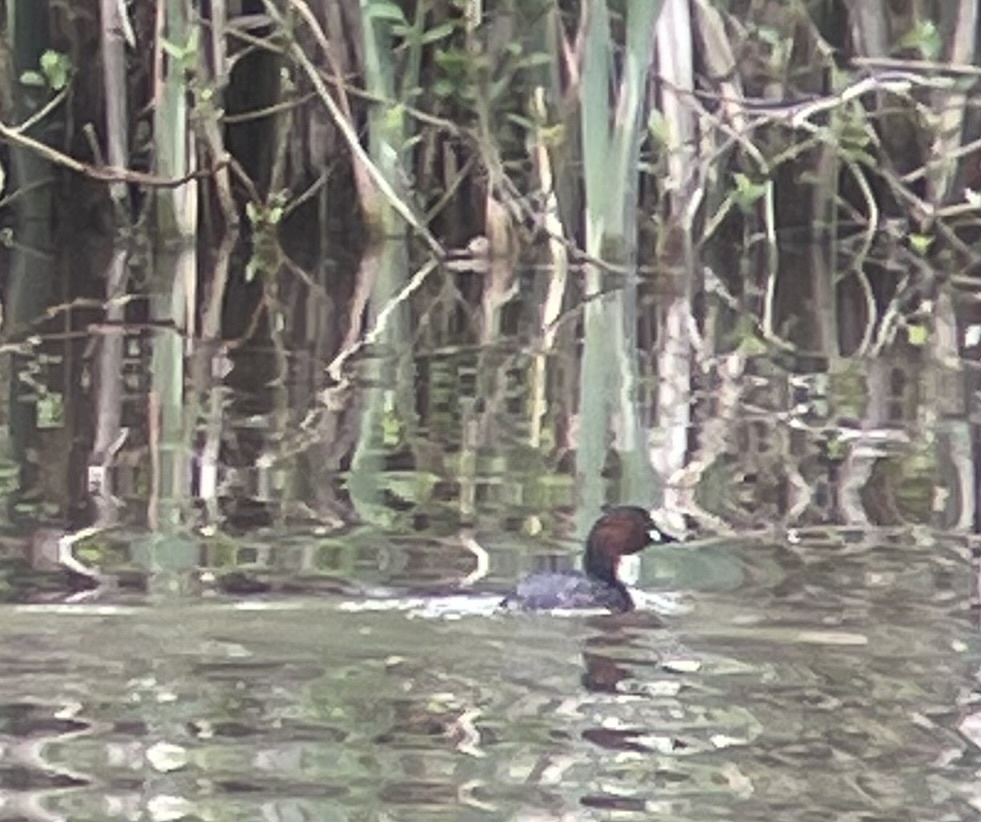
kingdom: Animalia
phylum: Chordata
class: Aves
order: Podicipediformes
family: Podicipedidae
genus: Tachybaptus
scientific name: Tachybaptus ruficollis
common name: Little grebe
